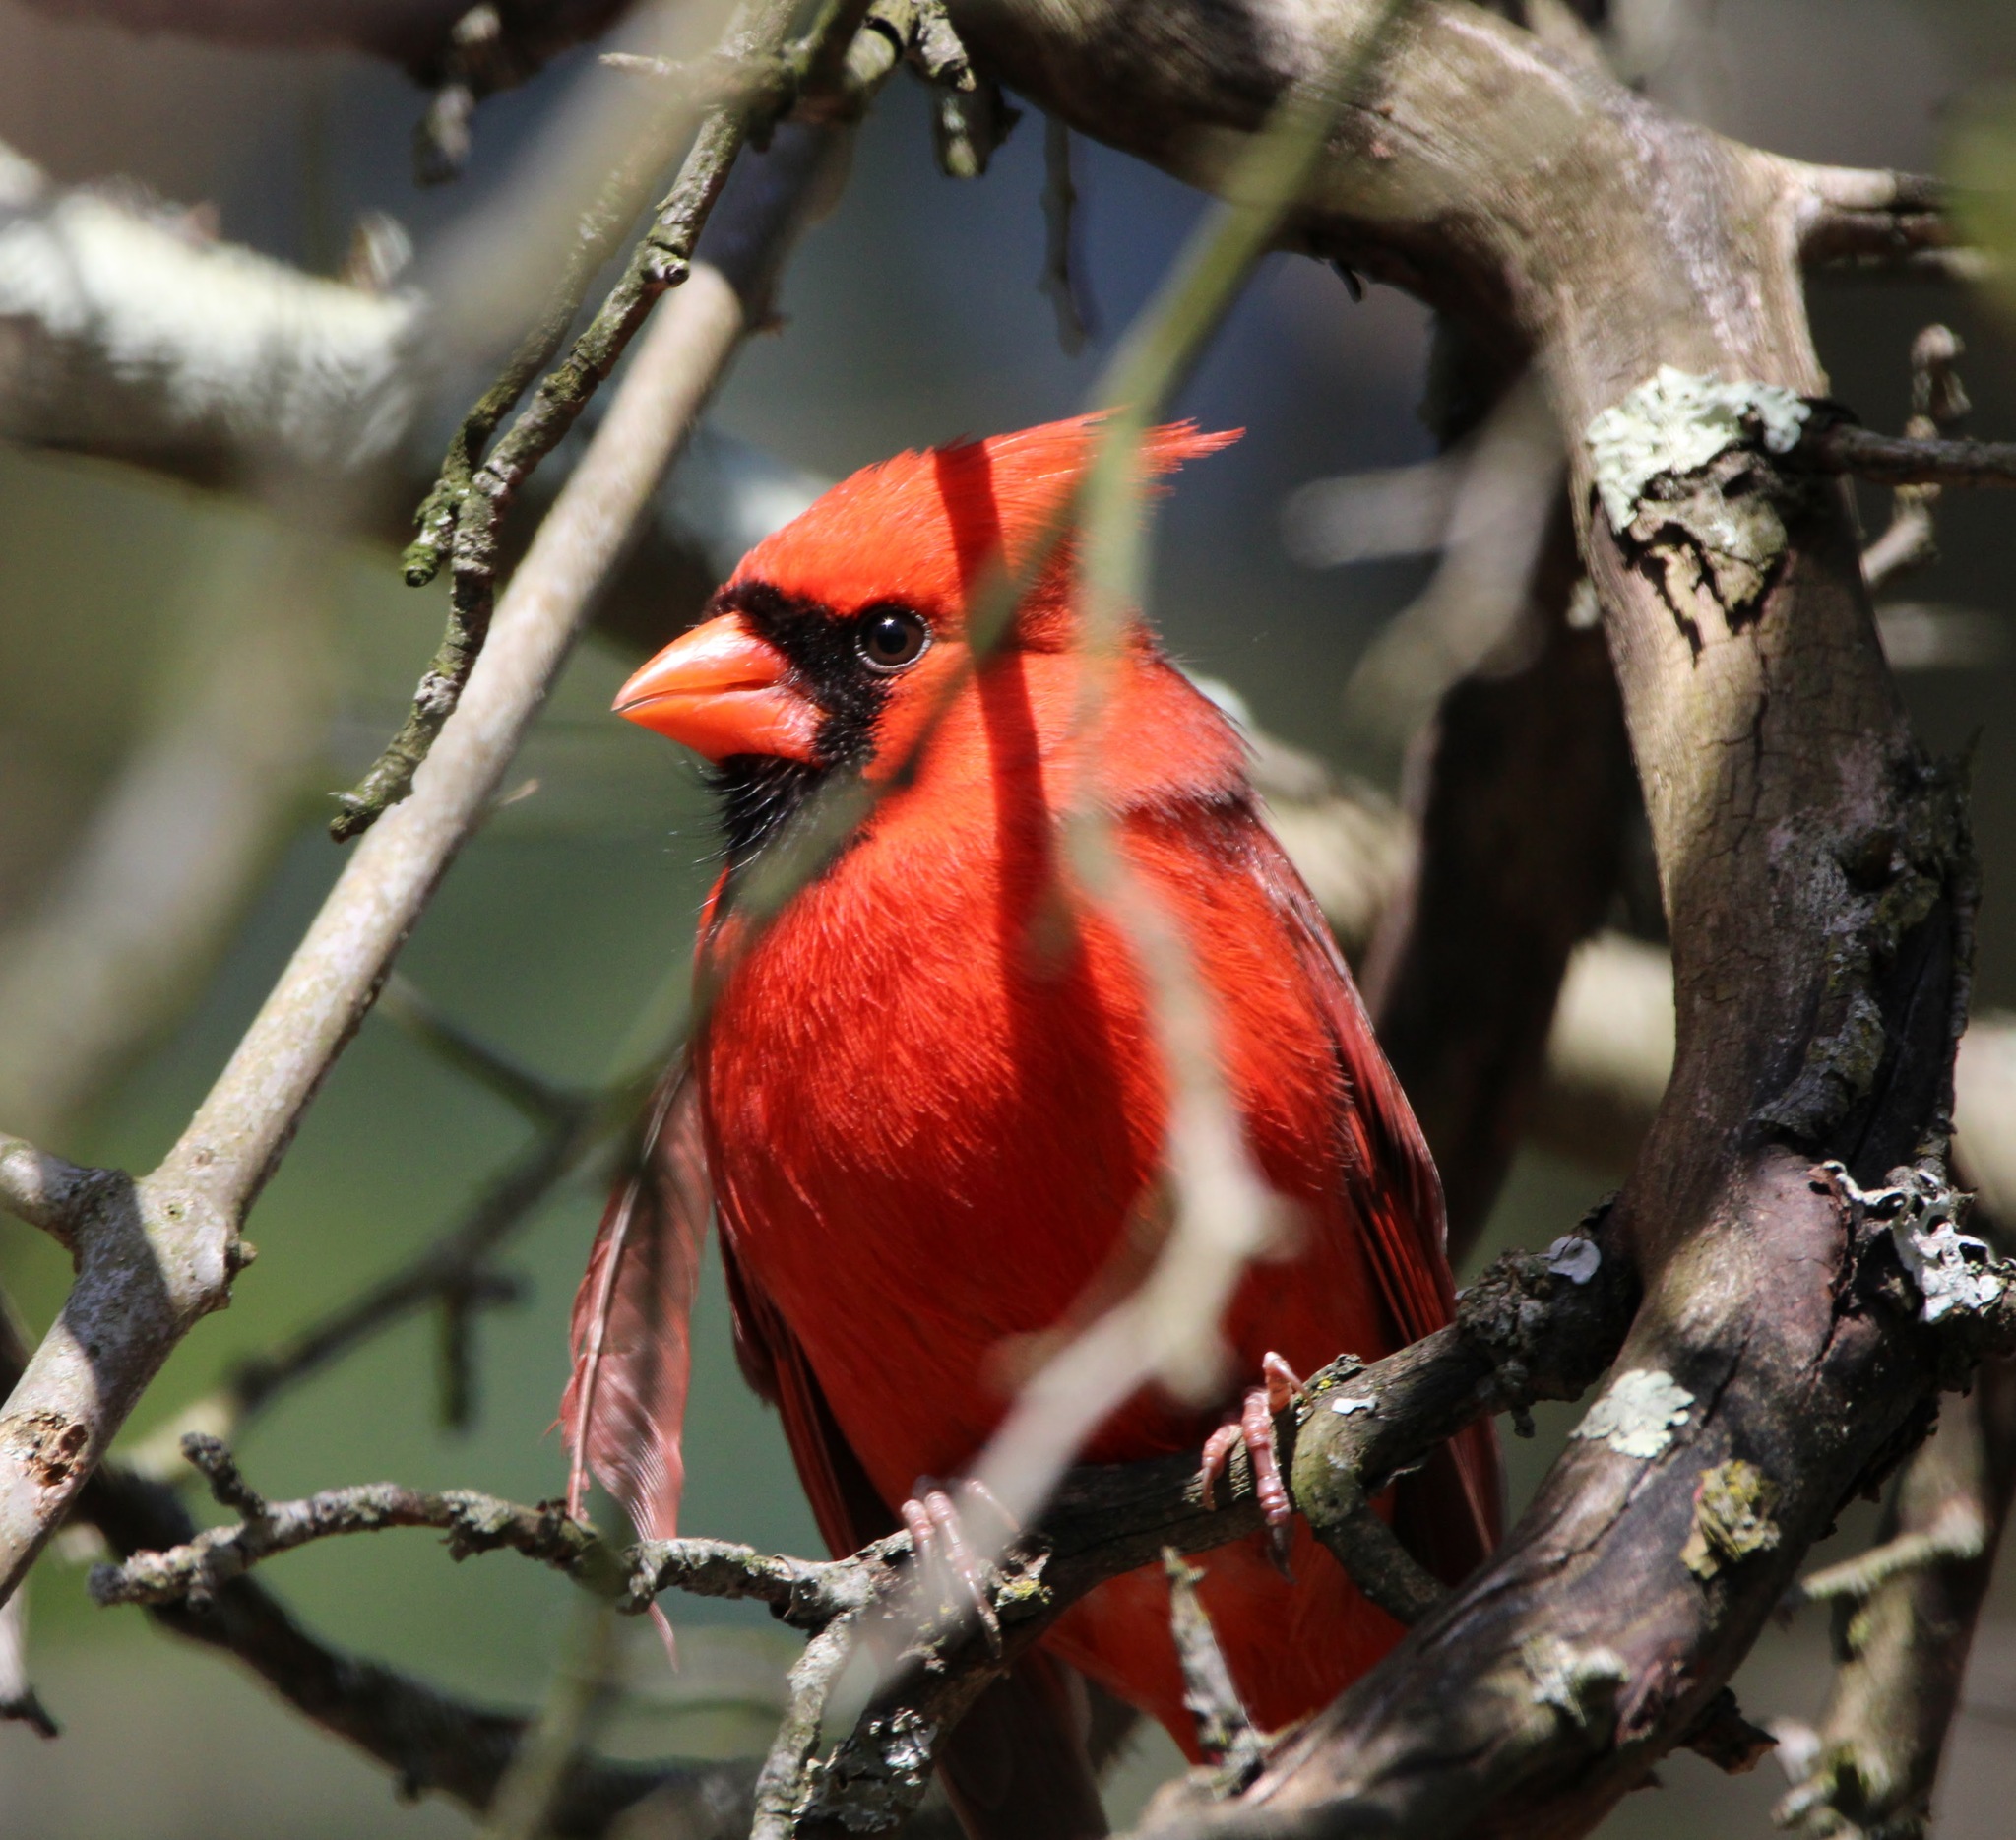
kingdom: Animalia
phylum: Chordata
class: Aves
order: Passeriformes
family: Cardinalidae
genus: Cardinalis
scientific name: Cardinalis cardinalis
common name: Northern cardinal
